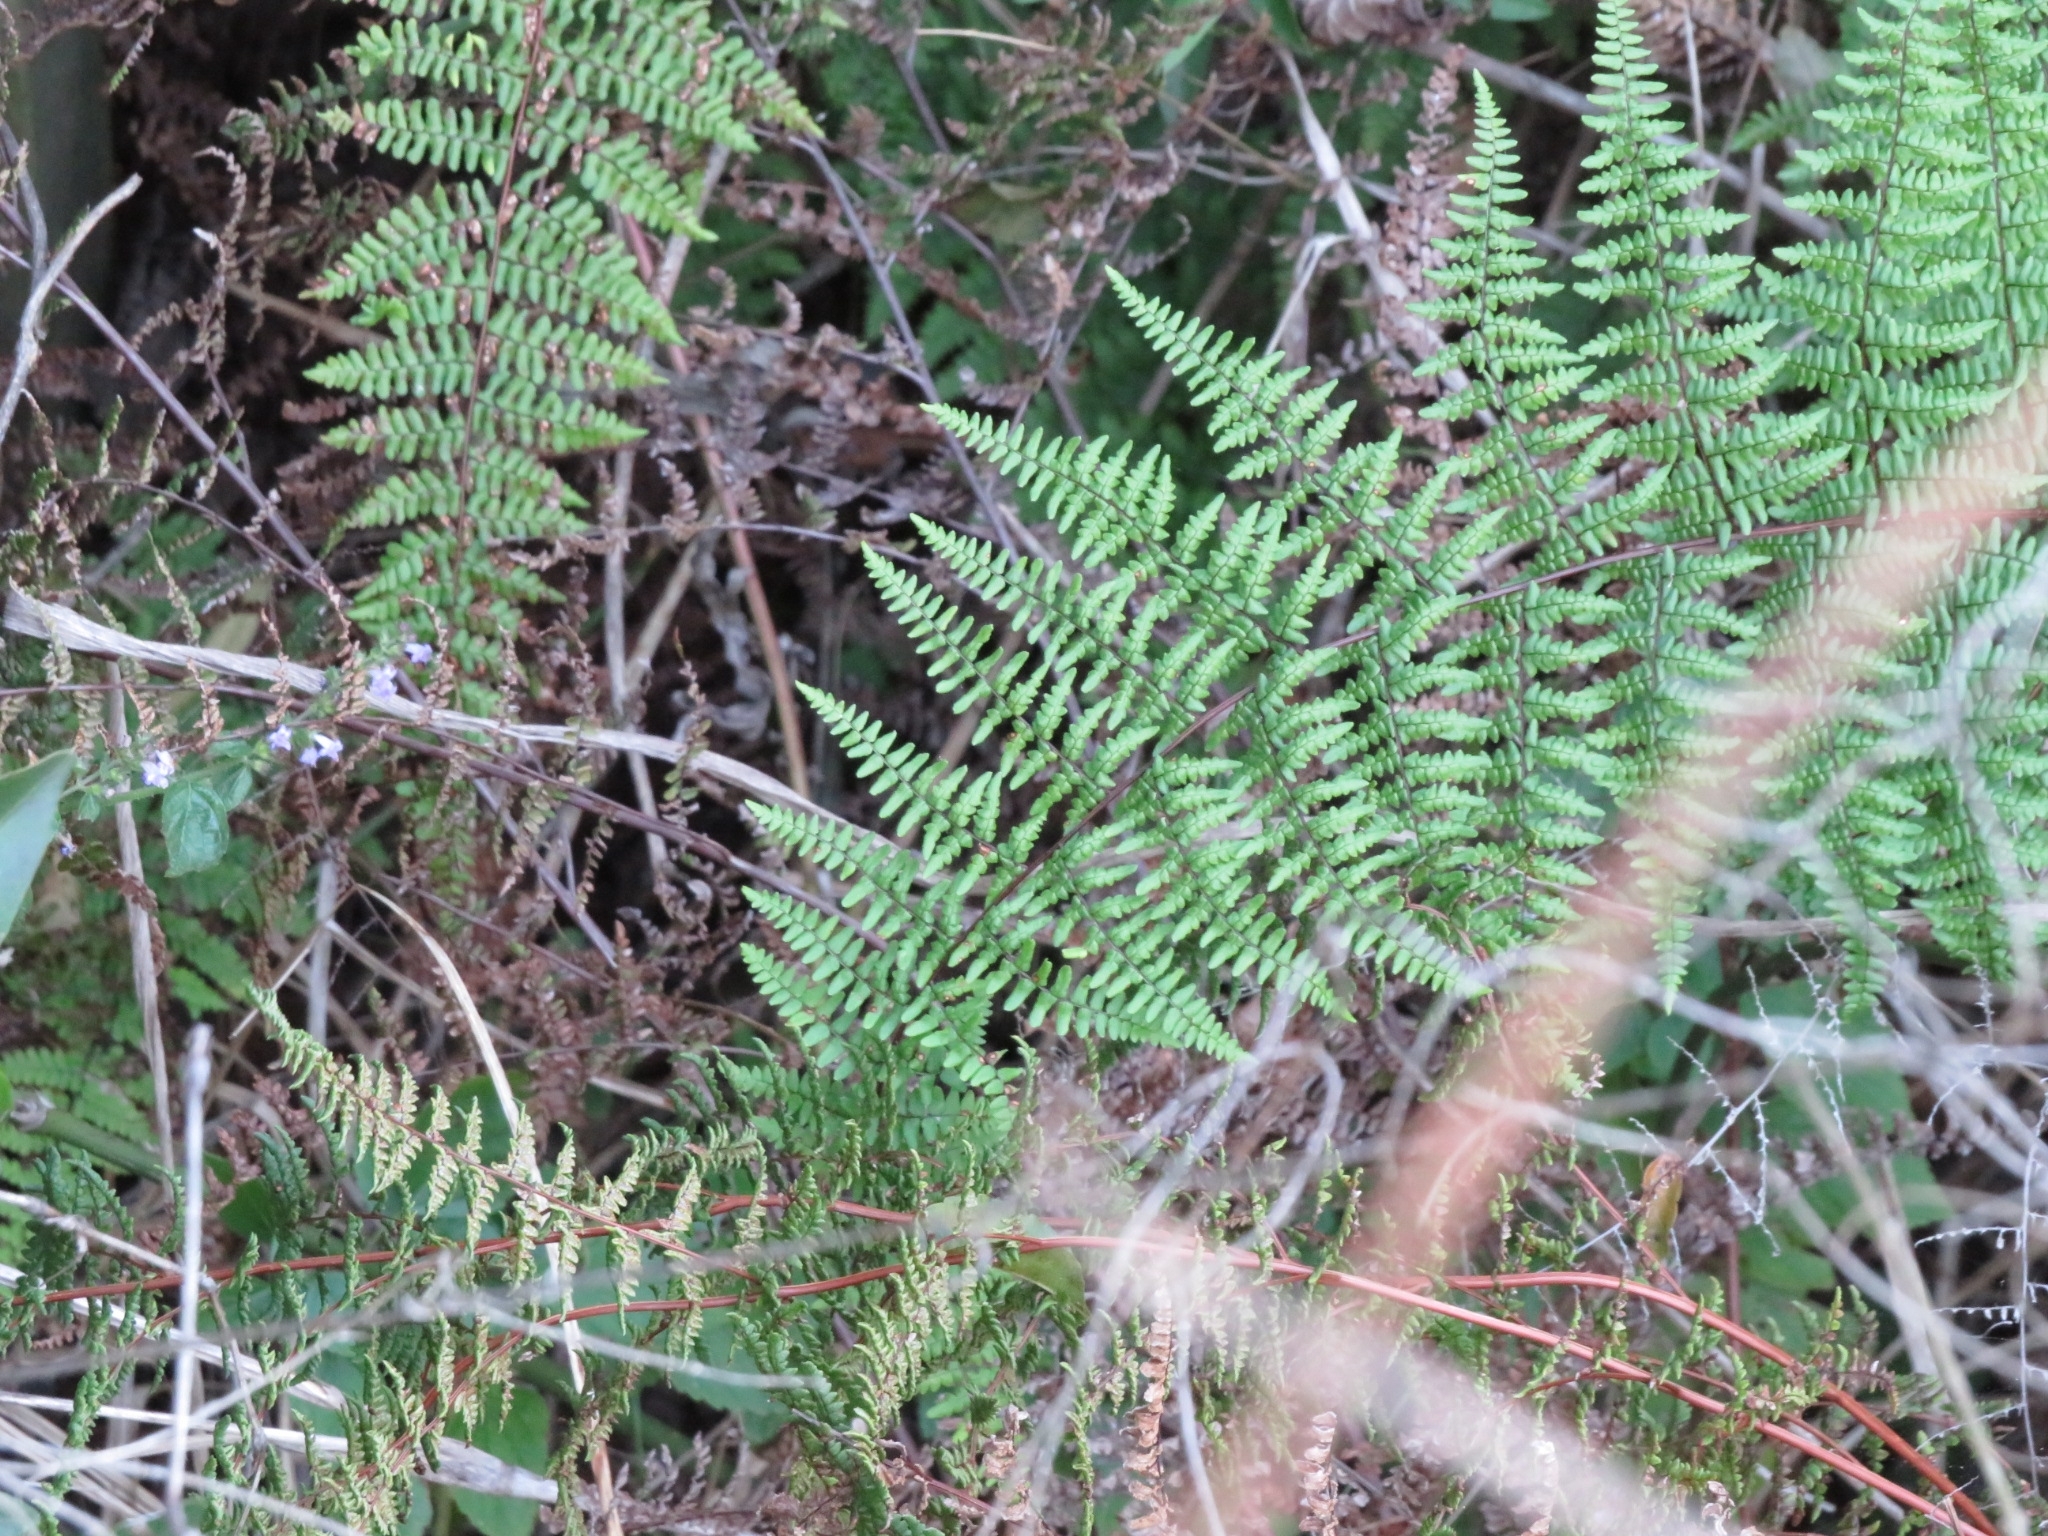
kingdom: Plantae
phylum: Tracheophyta
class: Polypodiopsida
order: Polypodiales
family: Pteridaceae
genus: Adiantopsis
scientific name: Adiantopsis chlorophylla
